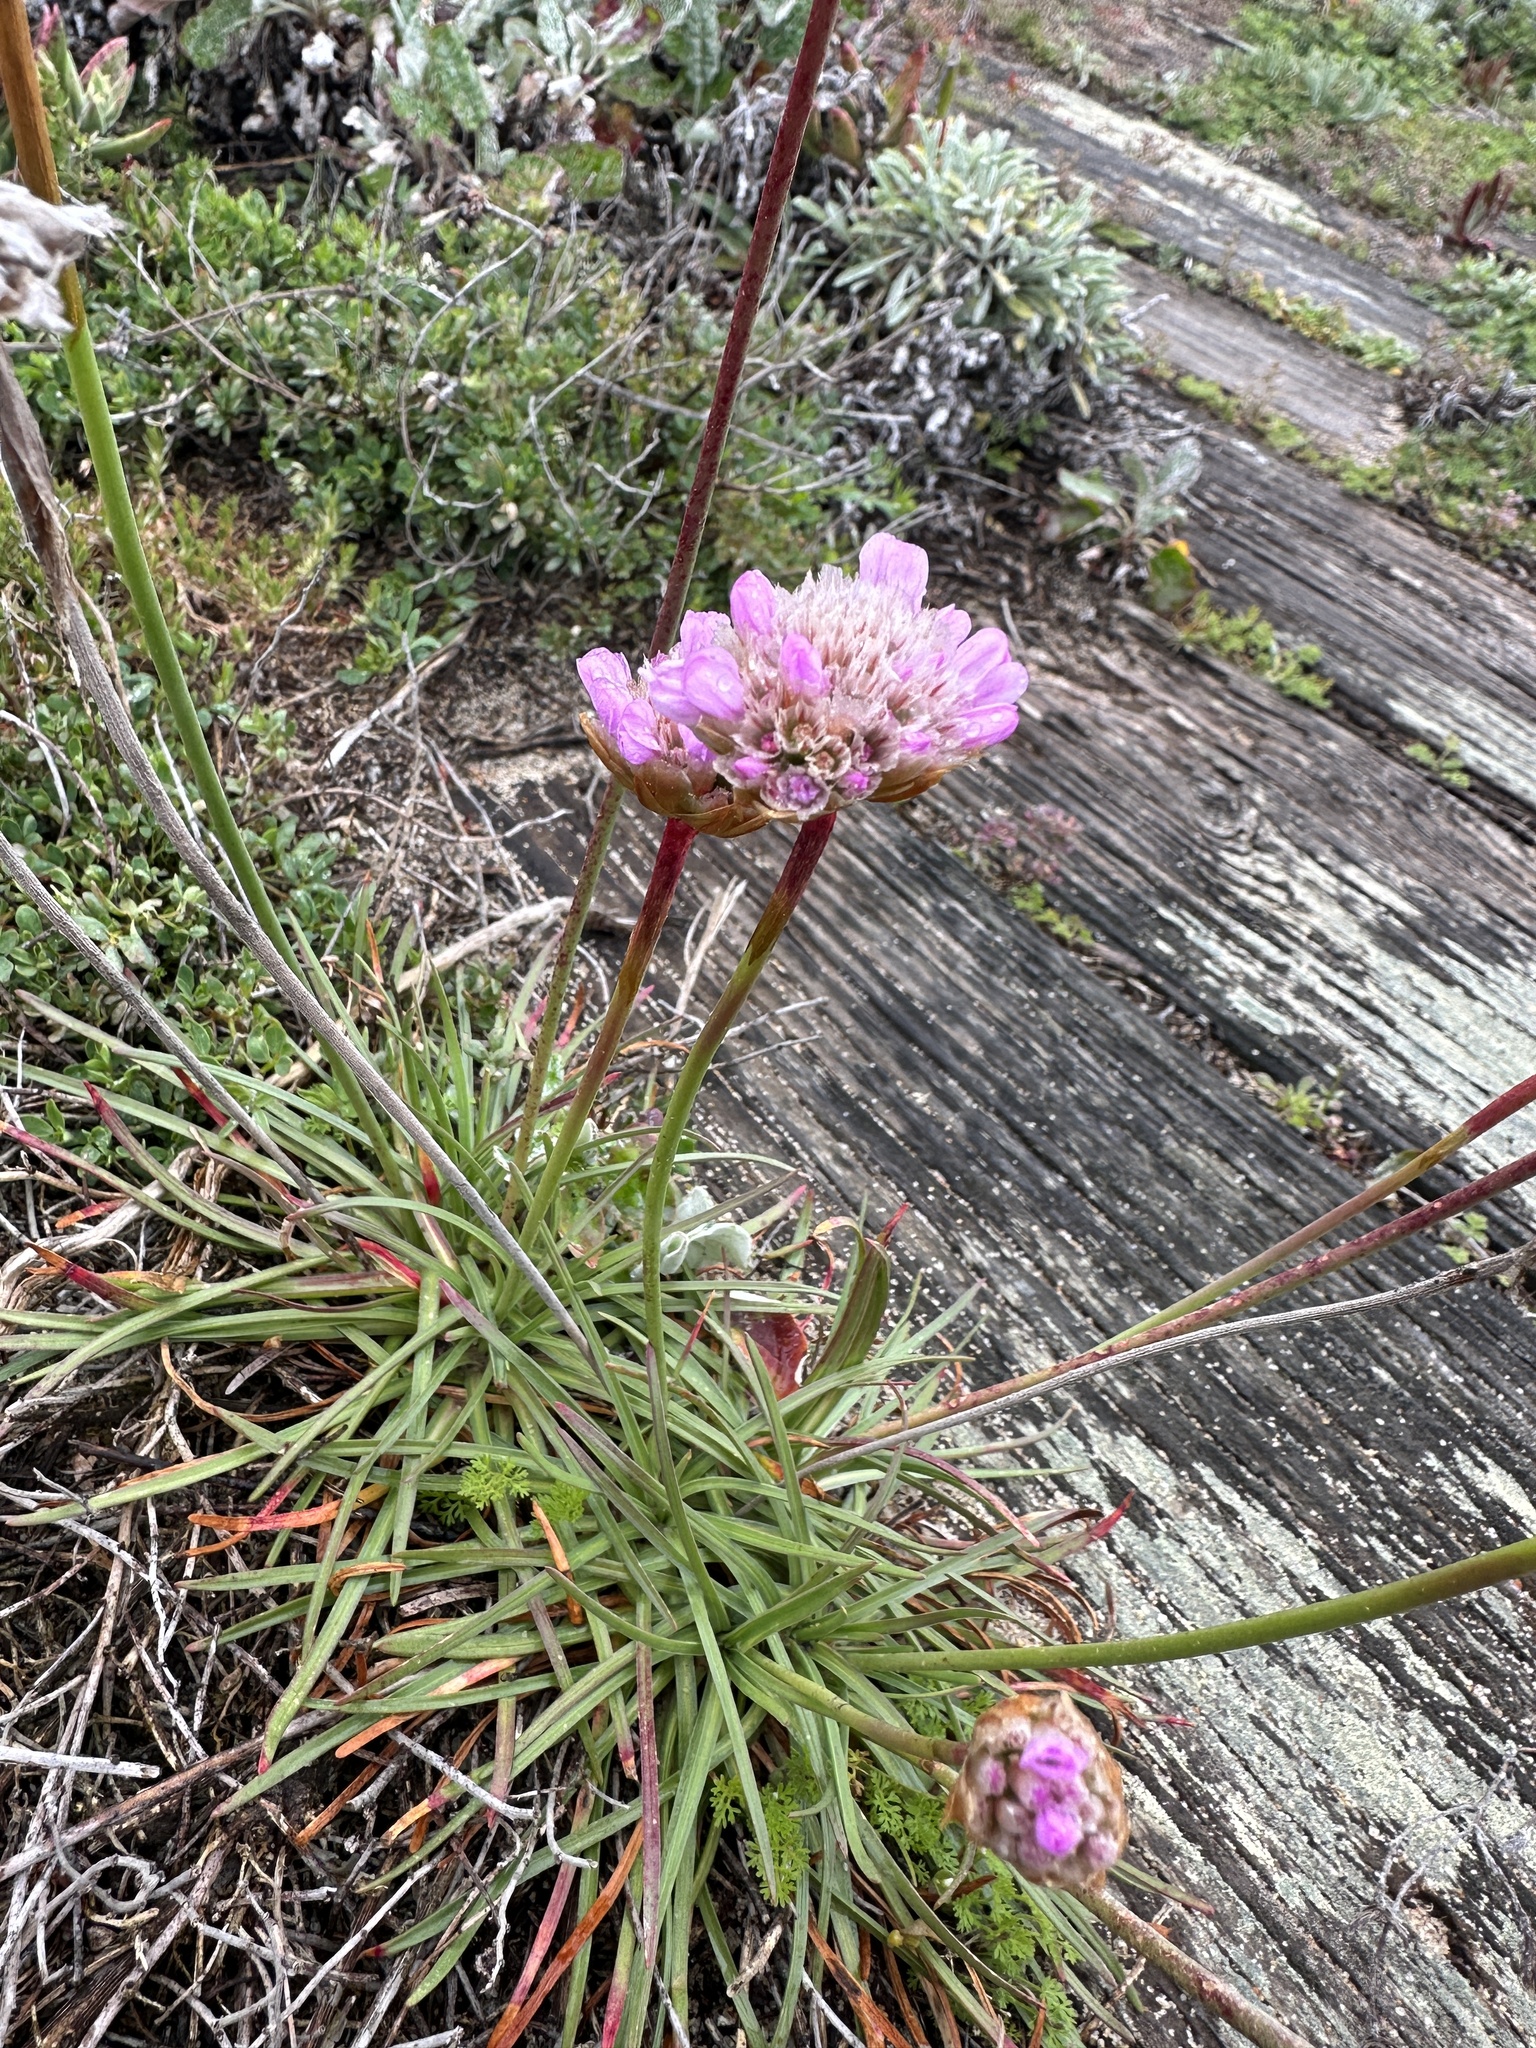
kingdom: Plantae
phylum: Tracheophyta
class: Magnoliopsida
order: Caryophyllales
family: Plumbaginaceae
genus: Armeria
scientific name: Armeria maritima
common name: Thrift
